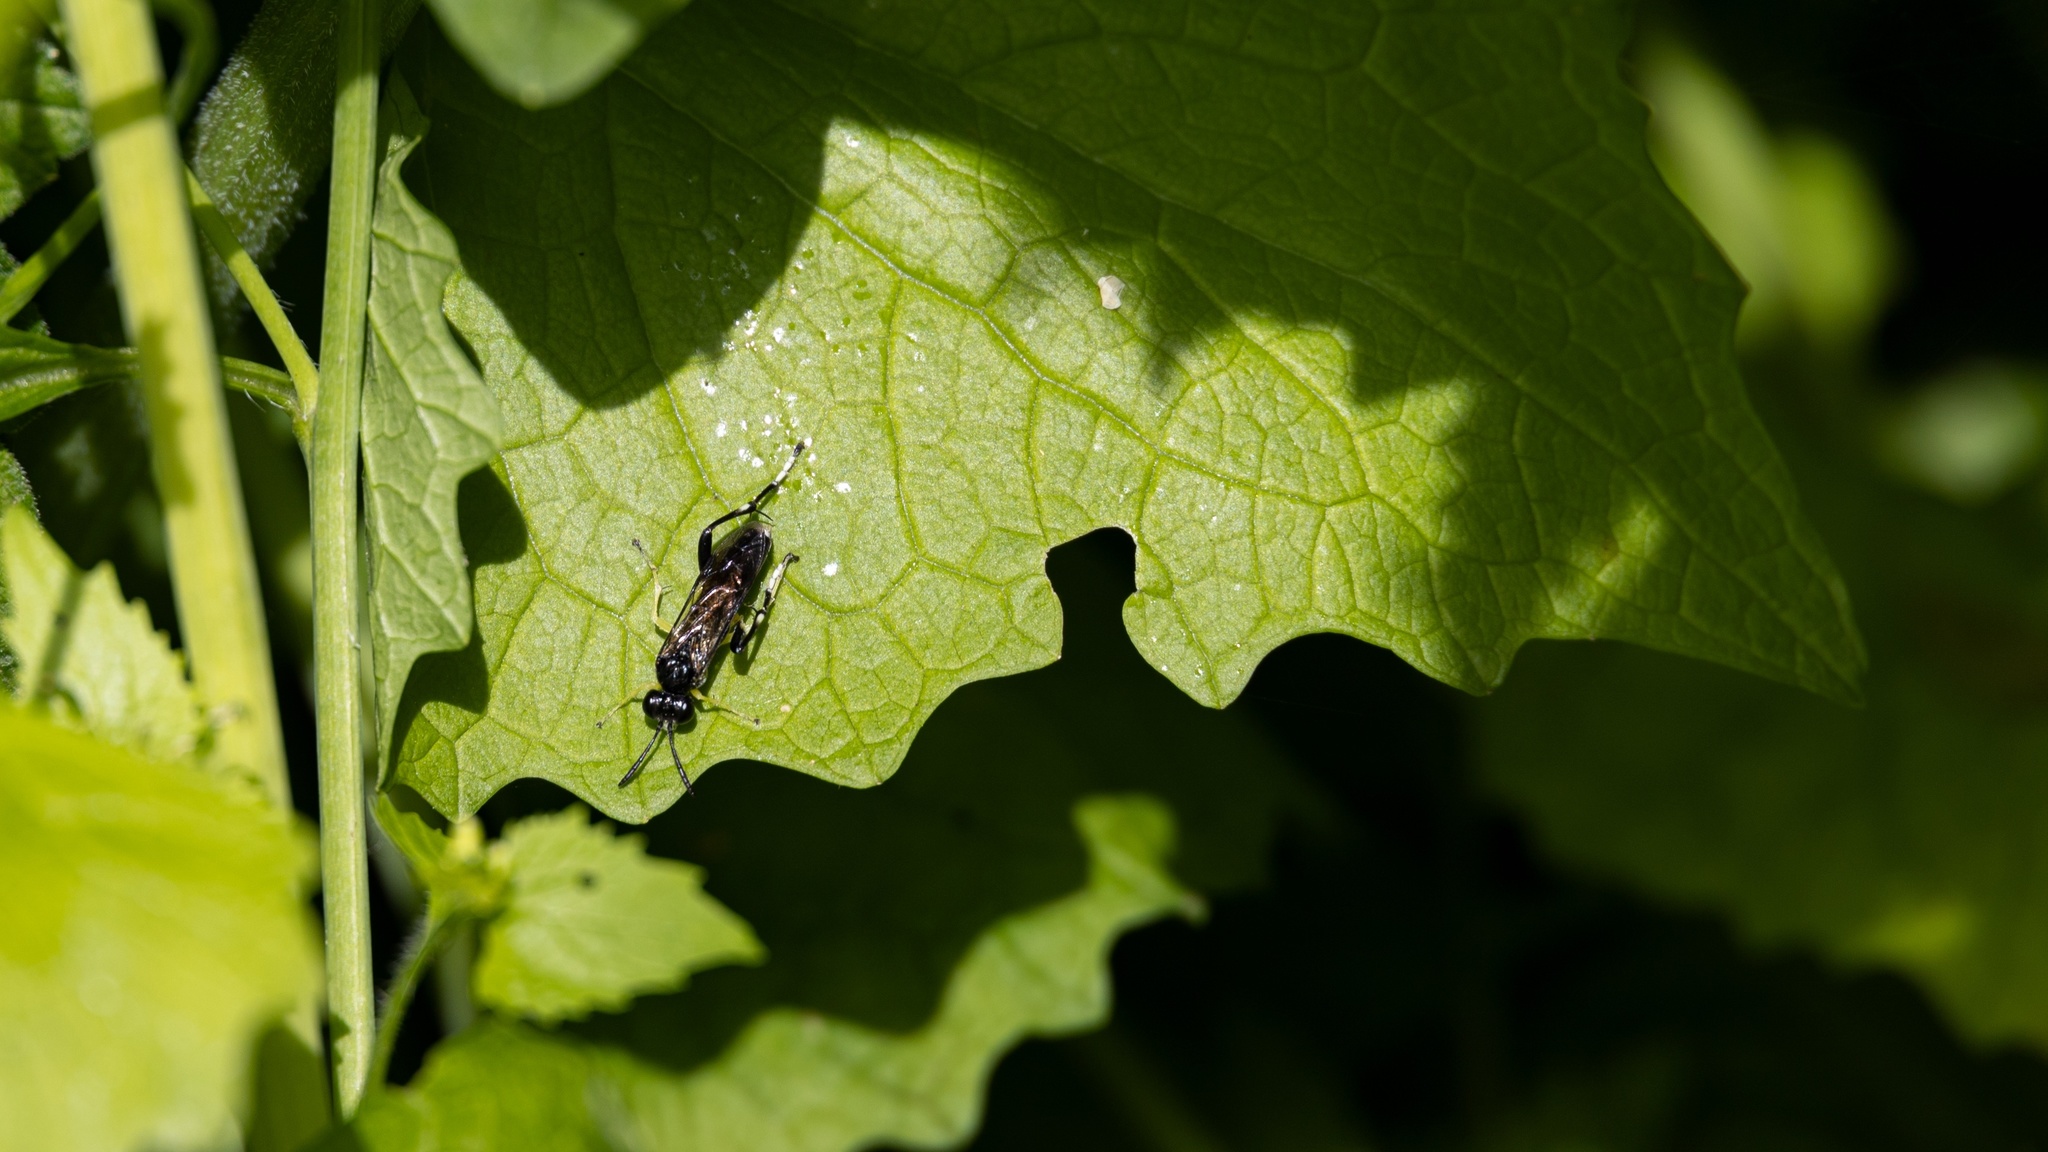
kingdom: Animalia
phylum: Arthropoda
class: Insecta
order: Hymenoptera
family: Tenthredinidae
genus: Macrophya
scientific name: Macrophya montana
